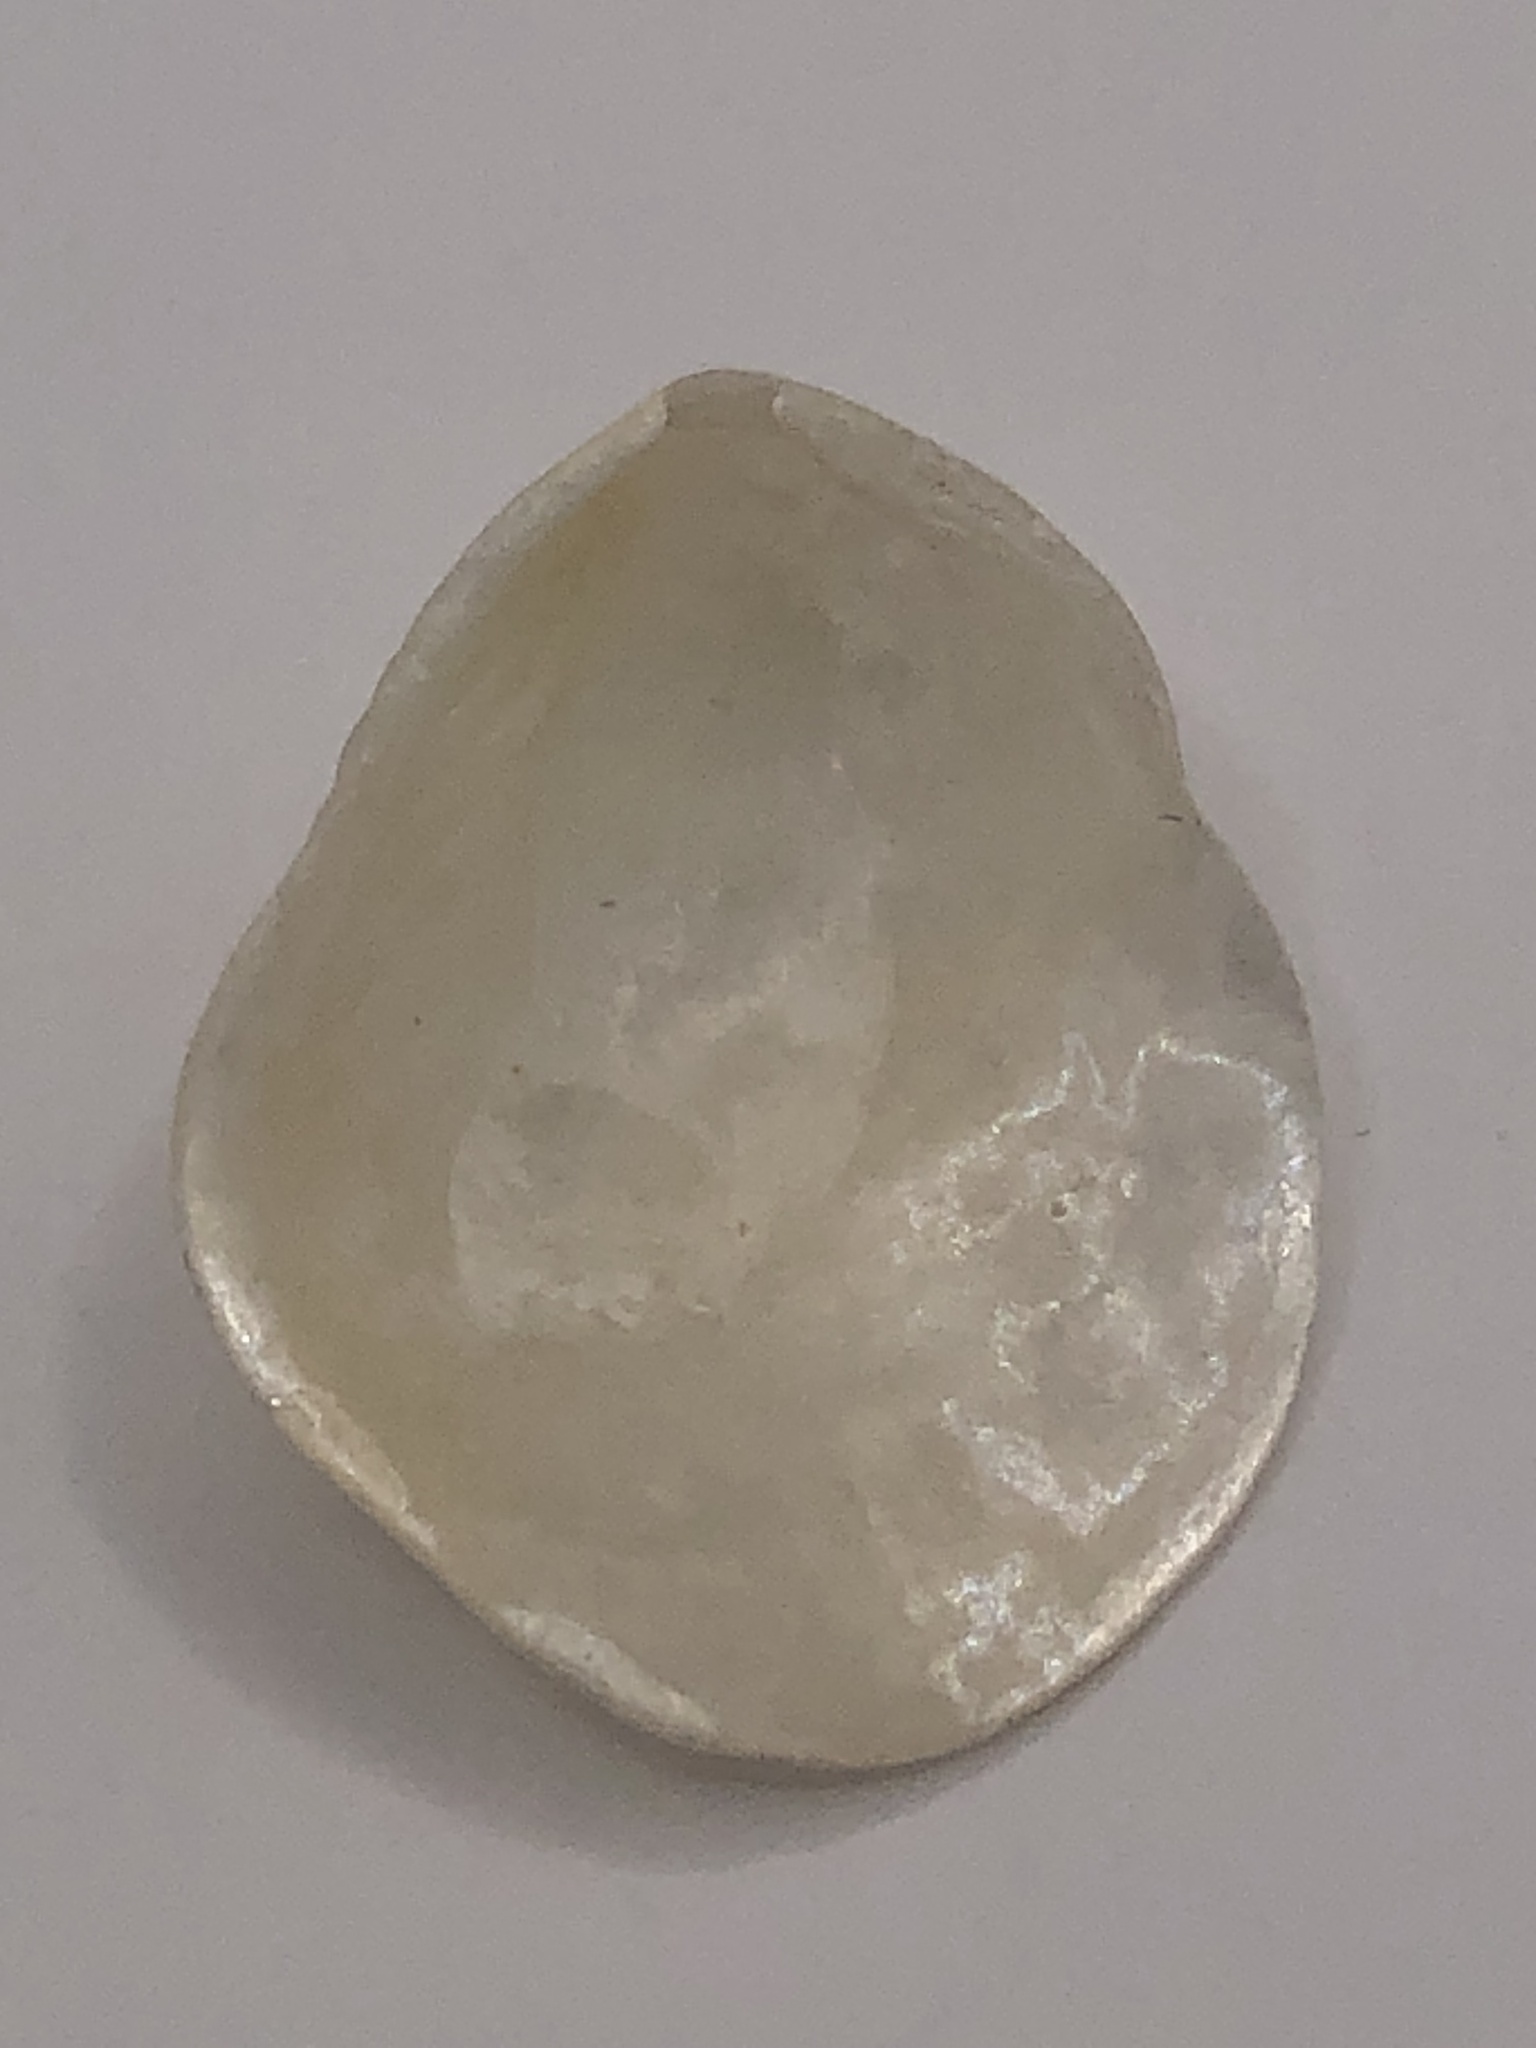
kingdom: Animalia
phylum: Mollusca
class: Bivalvia
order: Pectinida
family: Anomiidae
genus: Anomia
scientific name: Anomia simplex
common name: Common jingle shell
